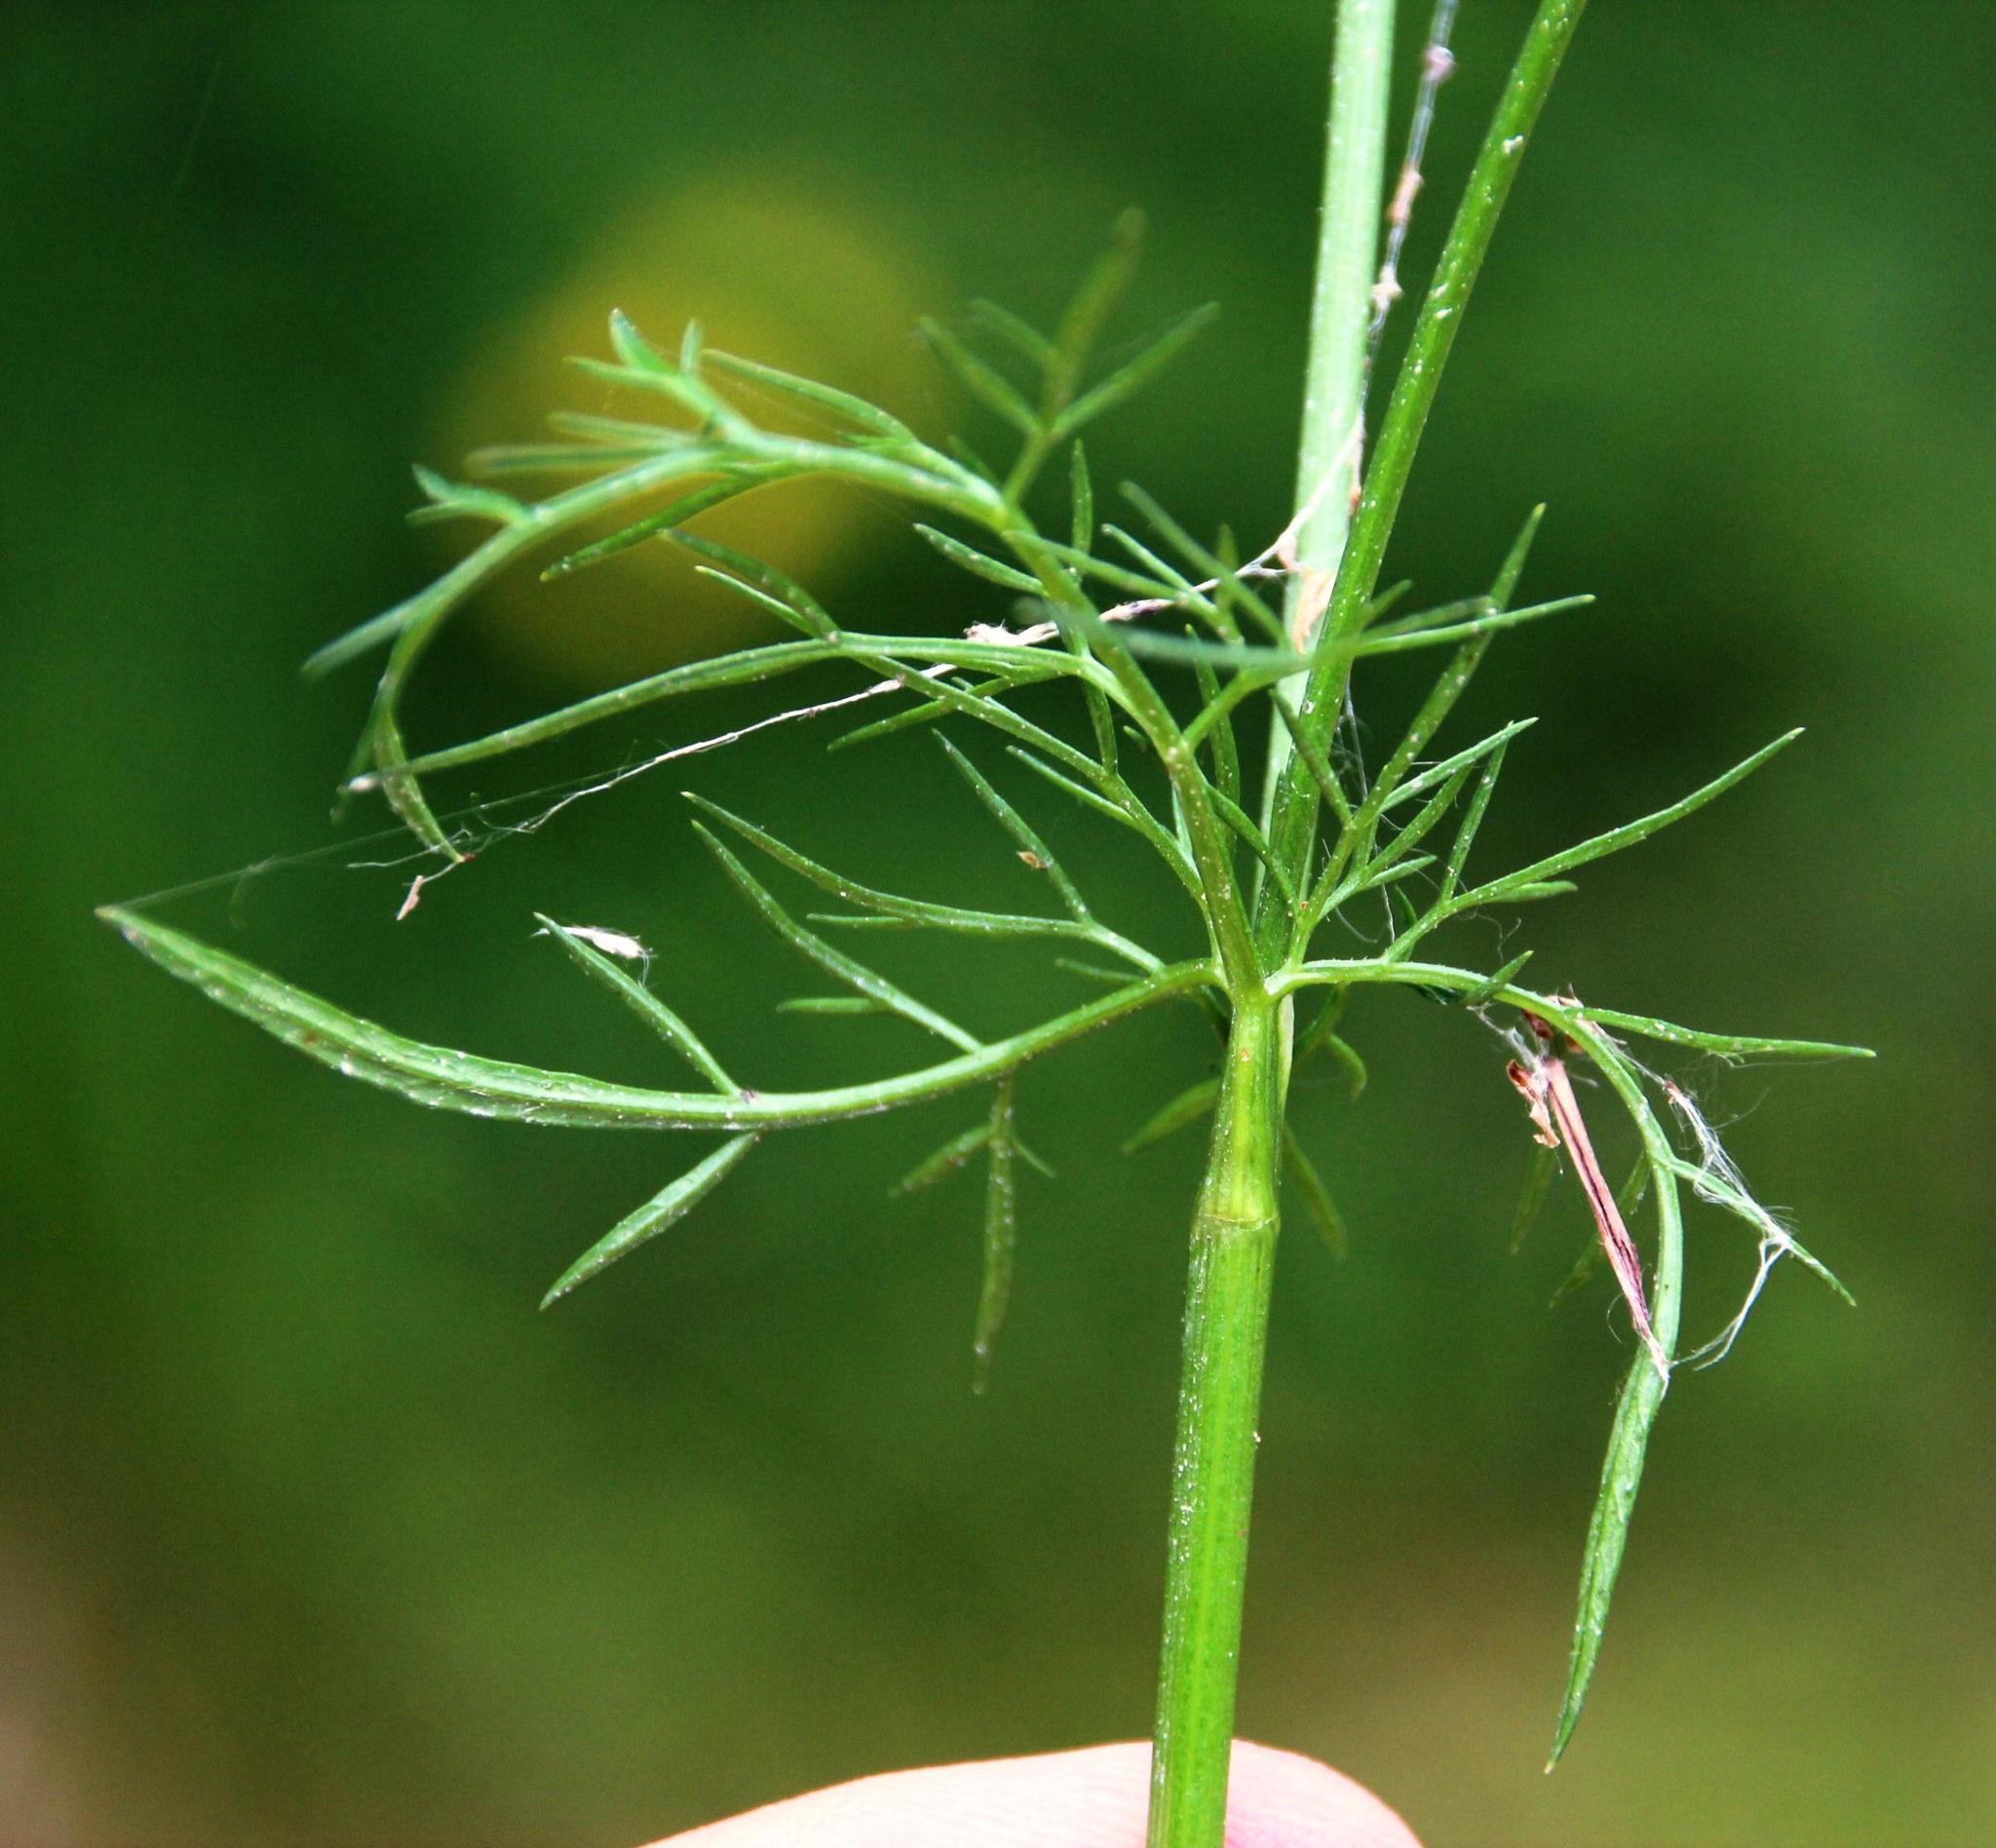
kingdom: Plantae
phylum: Tracheophyta
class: Magnoliopsida
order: Apiales
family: Apiaceae
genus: Conopodium
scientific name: Conopodium majus
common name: Pignut
